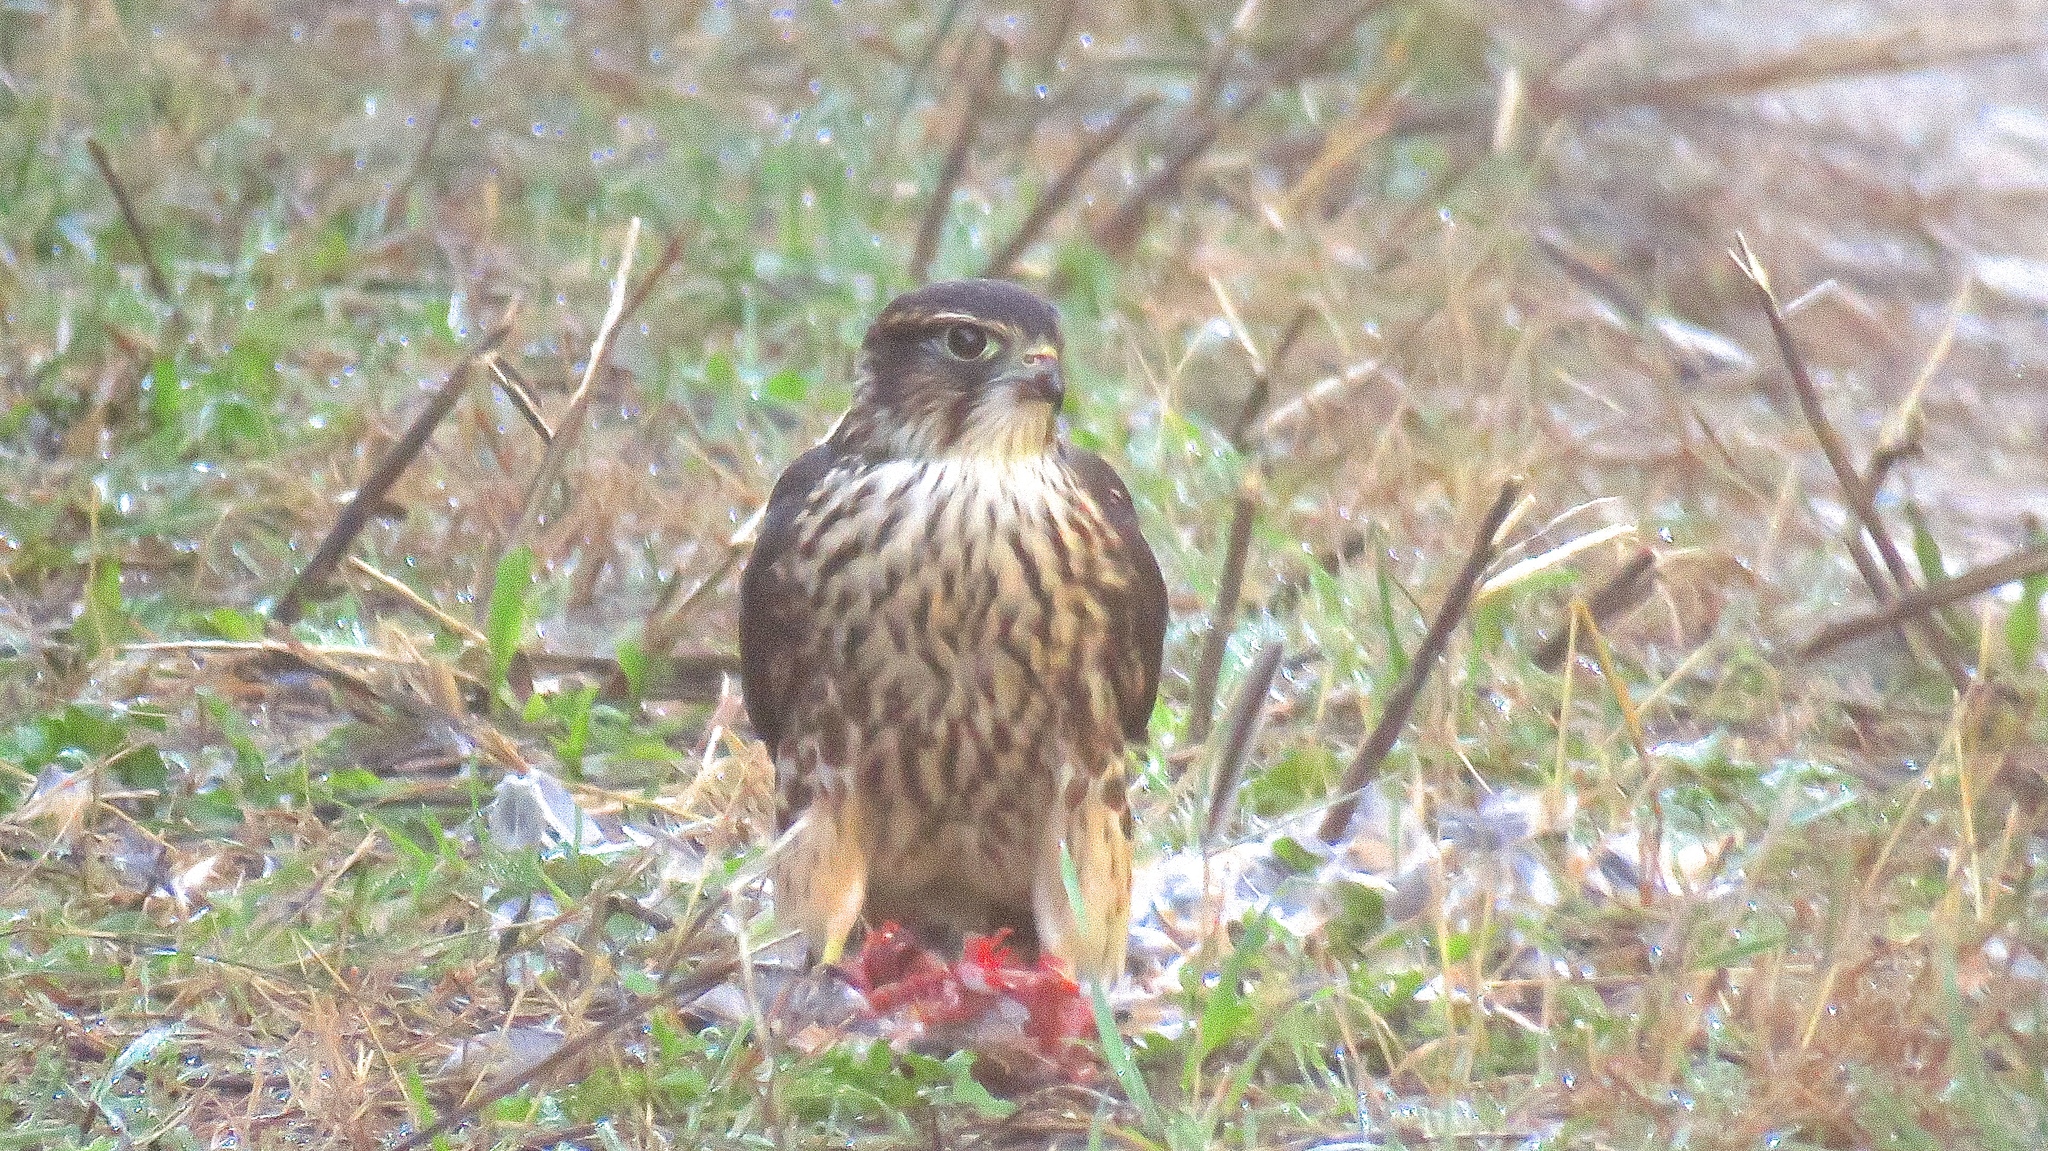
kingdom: Animalia
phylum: Chordata
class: Aves
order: Falconiformes
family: Falconidae
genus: Falco
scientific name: Falco columbarius
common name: Merlin
